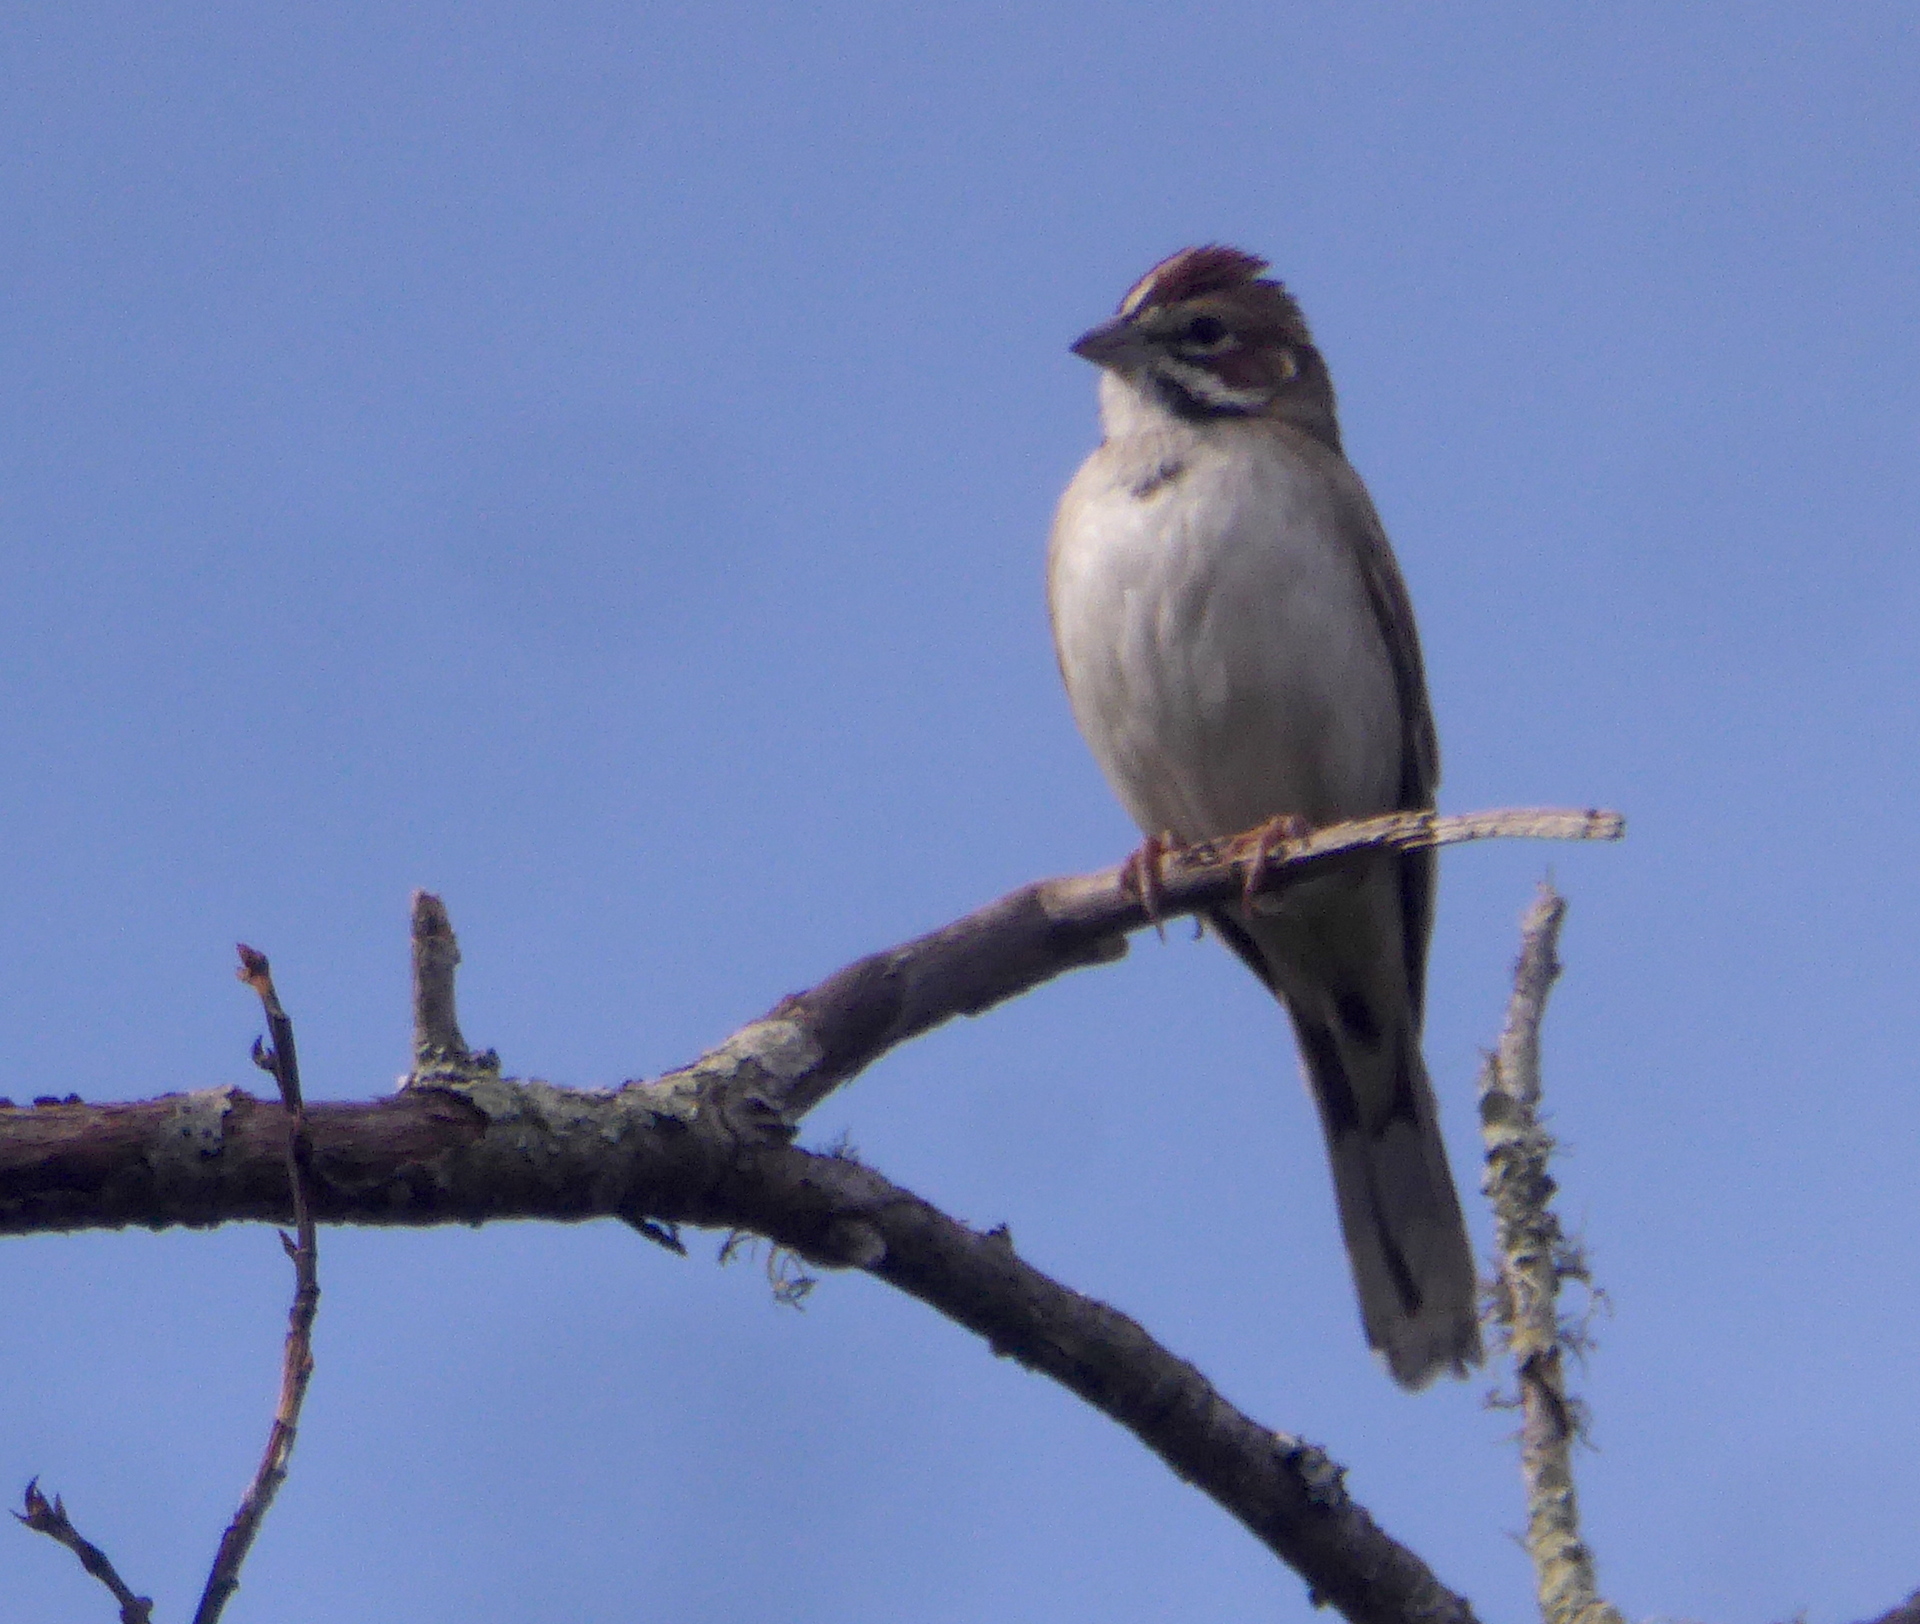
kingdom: Animalia
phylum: Chordata
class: Aves
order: Passeriformes
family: Passerellidae
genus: Chondestes
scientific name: Chondestes grammacus
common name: Lark sparrow
